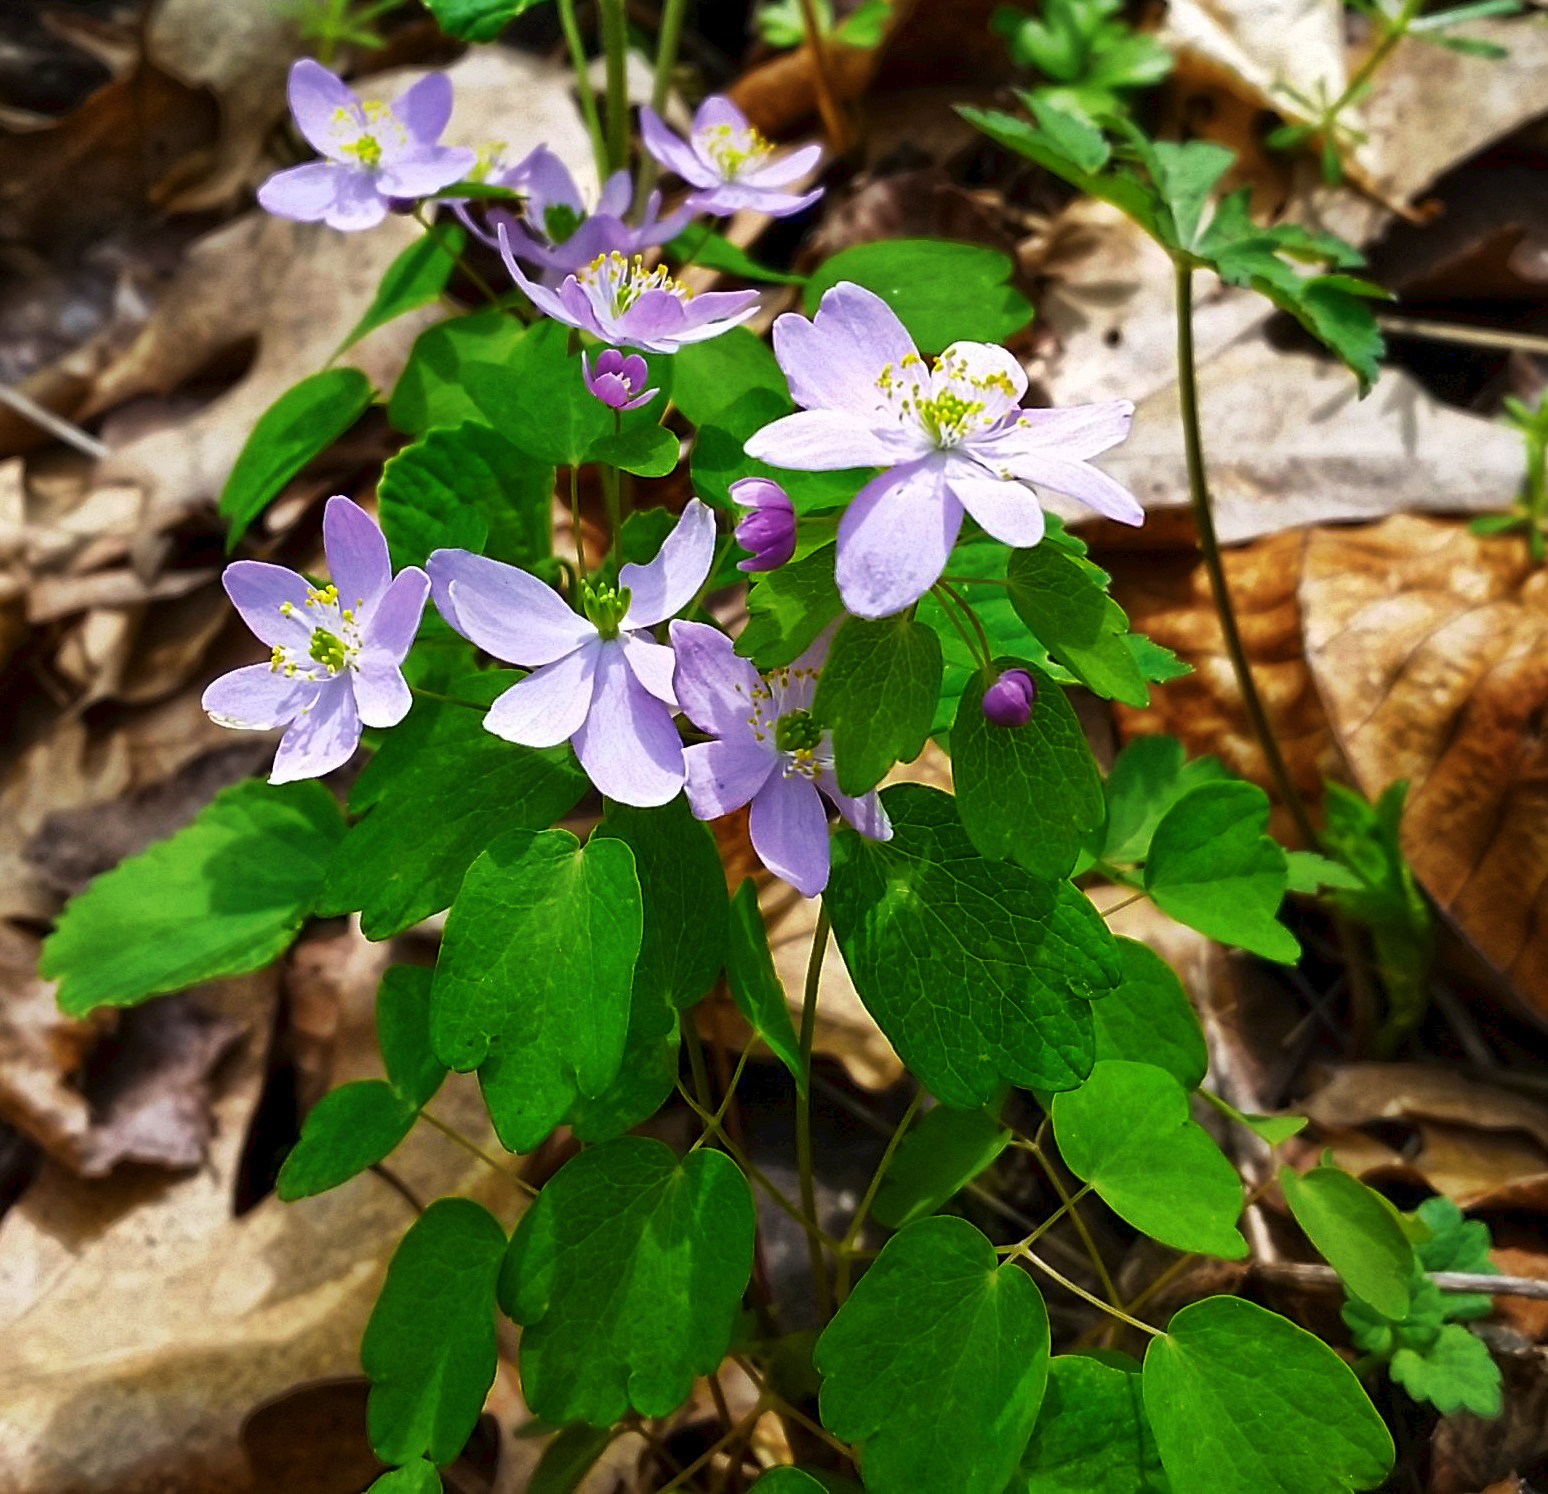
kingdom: Plantae
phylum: Tracheophyta
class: Magnoliopsida
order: Ranunculales
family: Ranunculaceae
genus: Thalictrum
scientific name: Thalictrum thalictroides
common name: Rue-anemone
